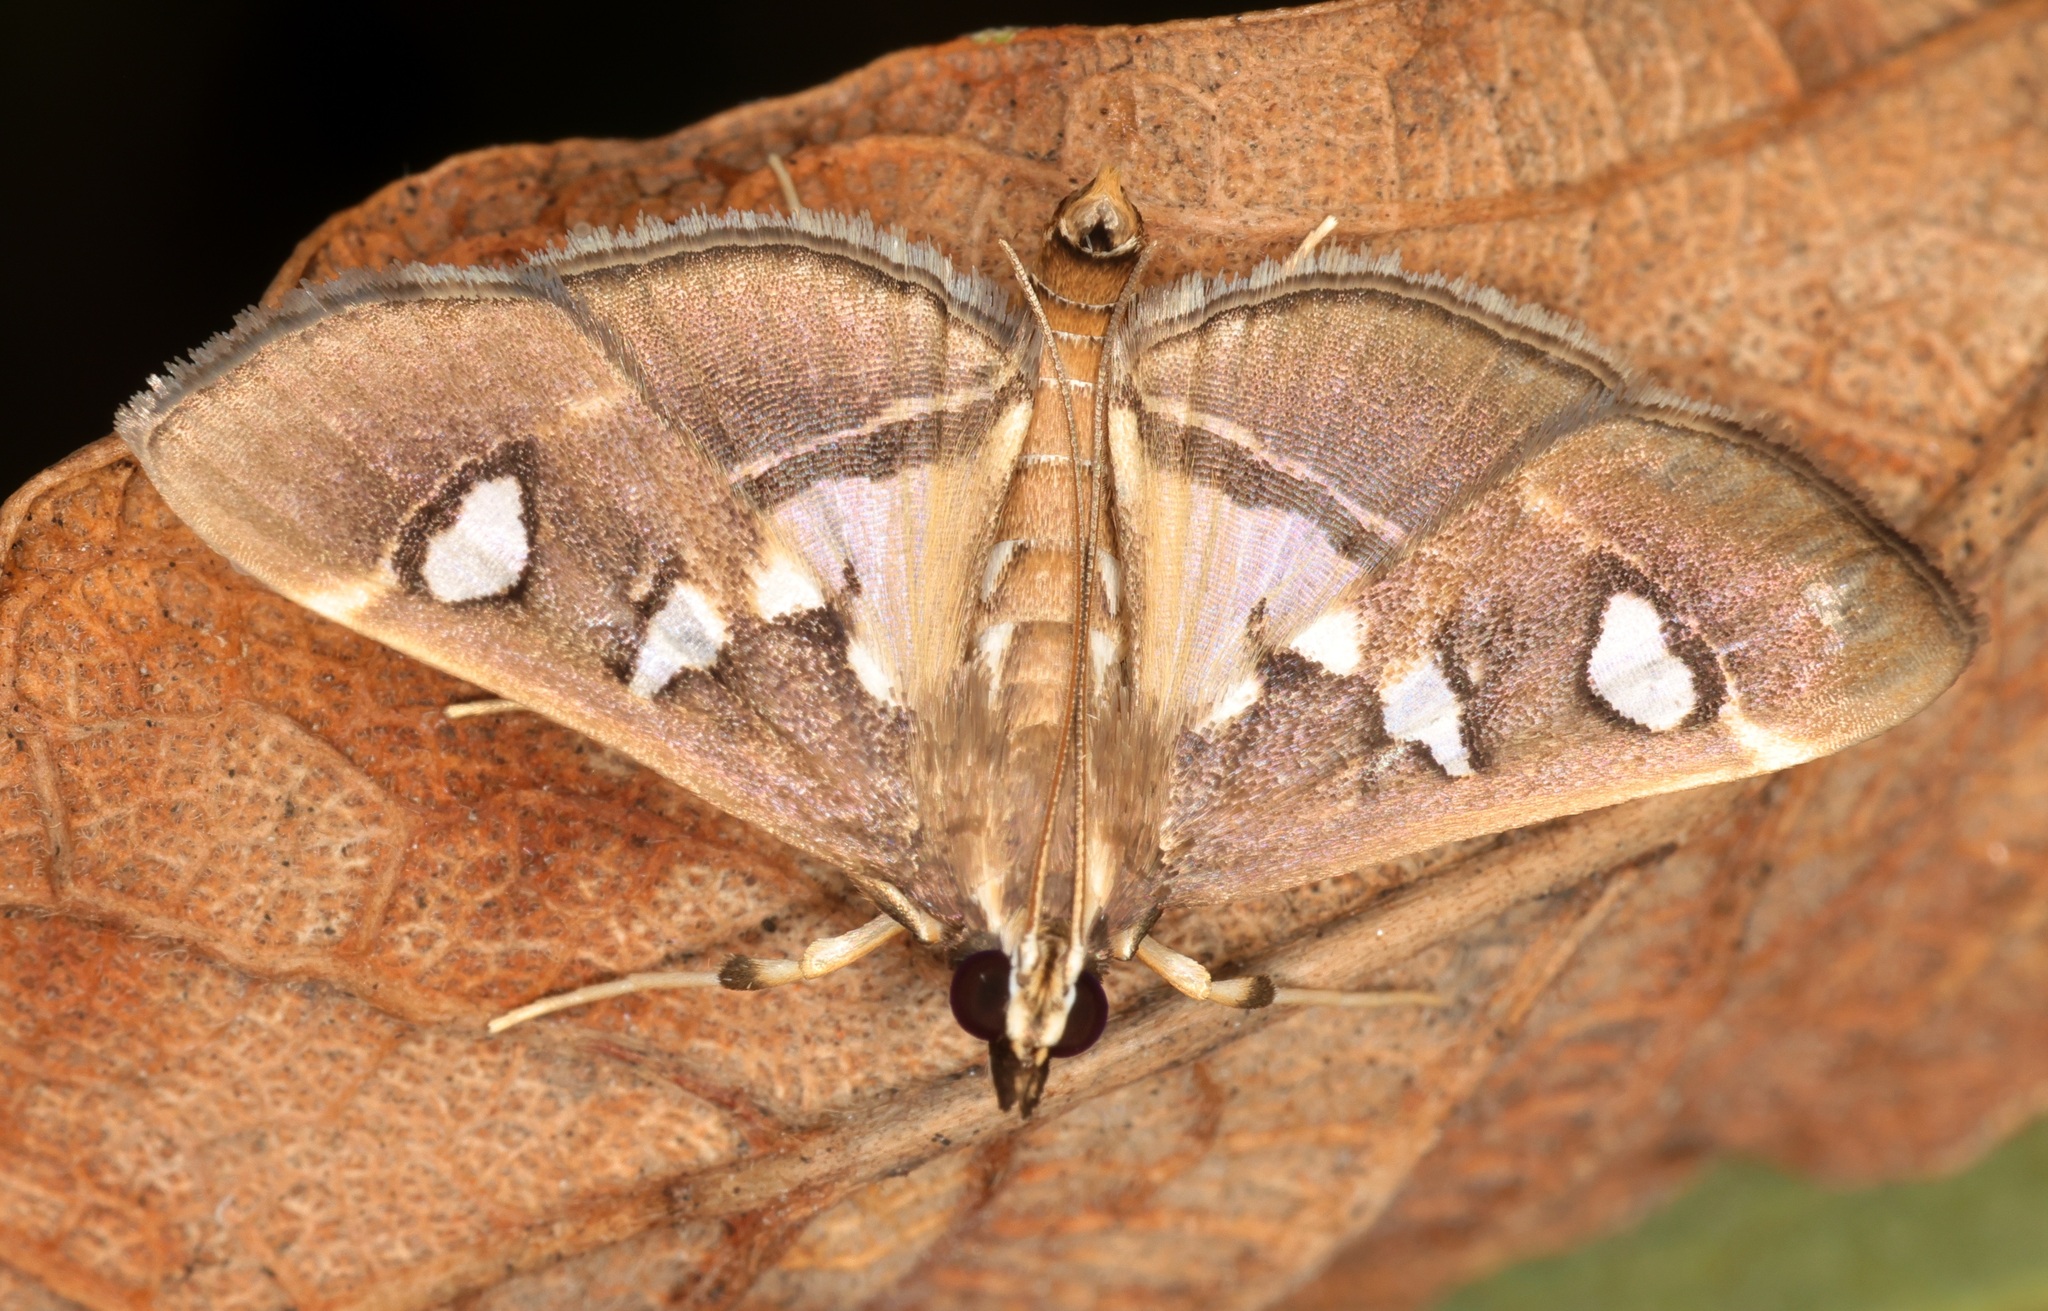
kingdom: Animalia
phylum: Arthropoda
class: Insecta
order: Lepidoptera
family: Crambidae
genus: Glyphodes
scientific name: Glyphodes crithealis
